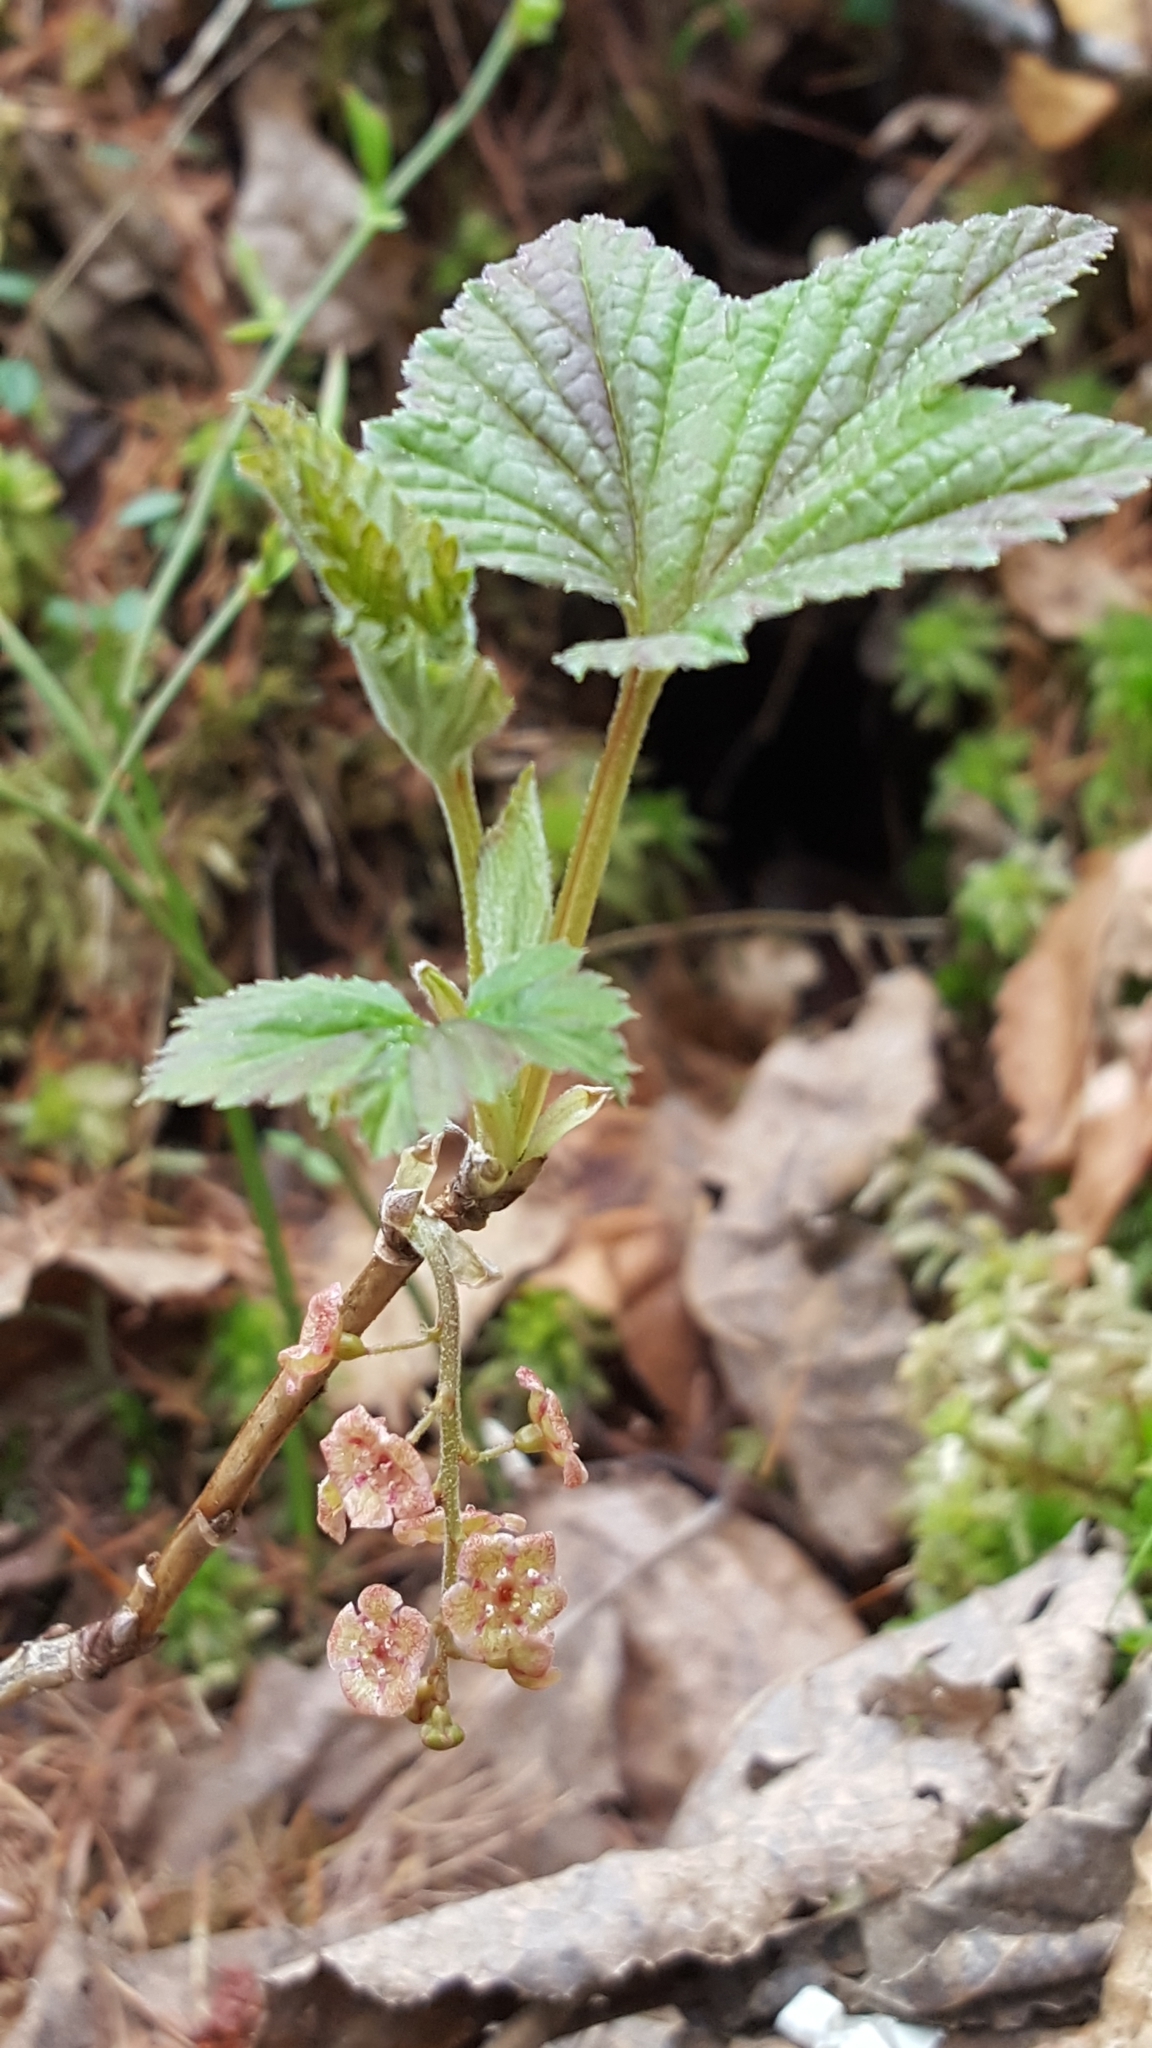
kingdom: Plantae
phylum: Tracheophyta
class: Magnoliopsida
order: Saxifragales
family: Grossulariaceae
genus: Ribes
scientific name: Ribes triste
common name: Swamp red currant
